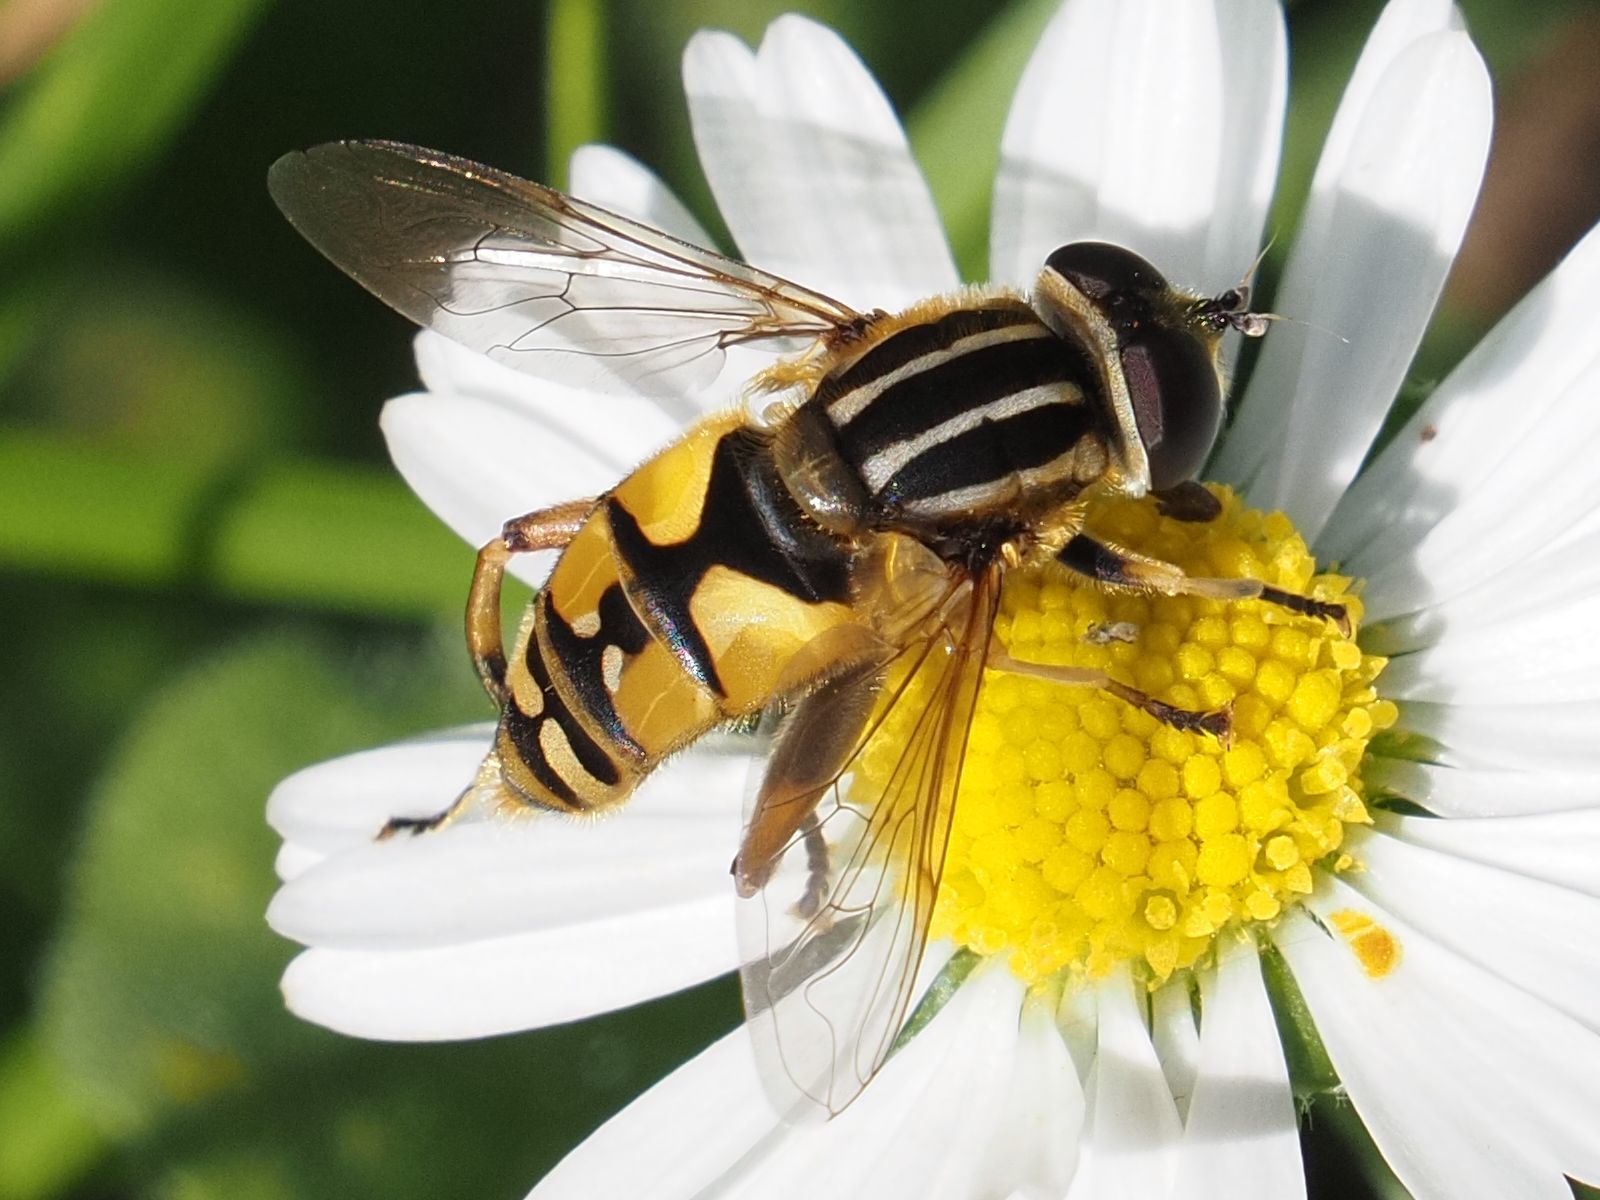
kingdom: Animalia
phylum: Arthropoda
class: Insecta
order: Diptera
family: Syrphidae
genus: Helophilus
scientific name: Helophilus pendulus
